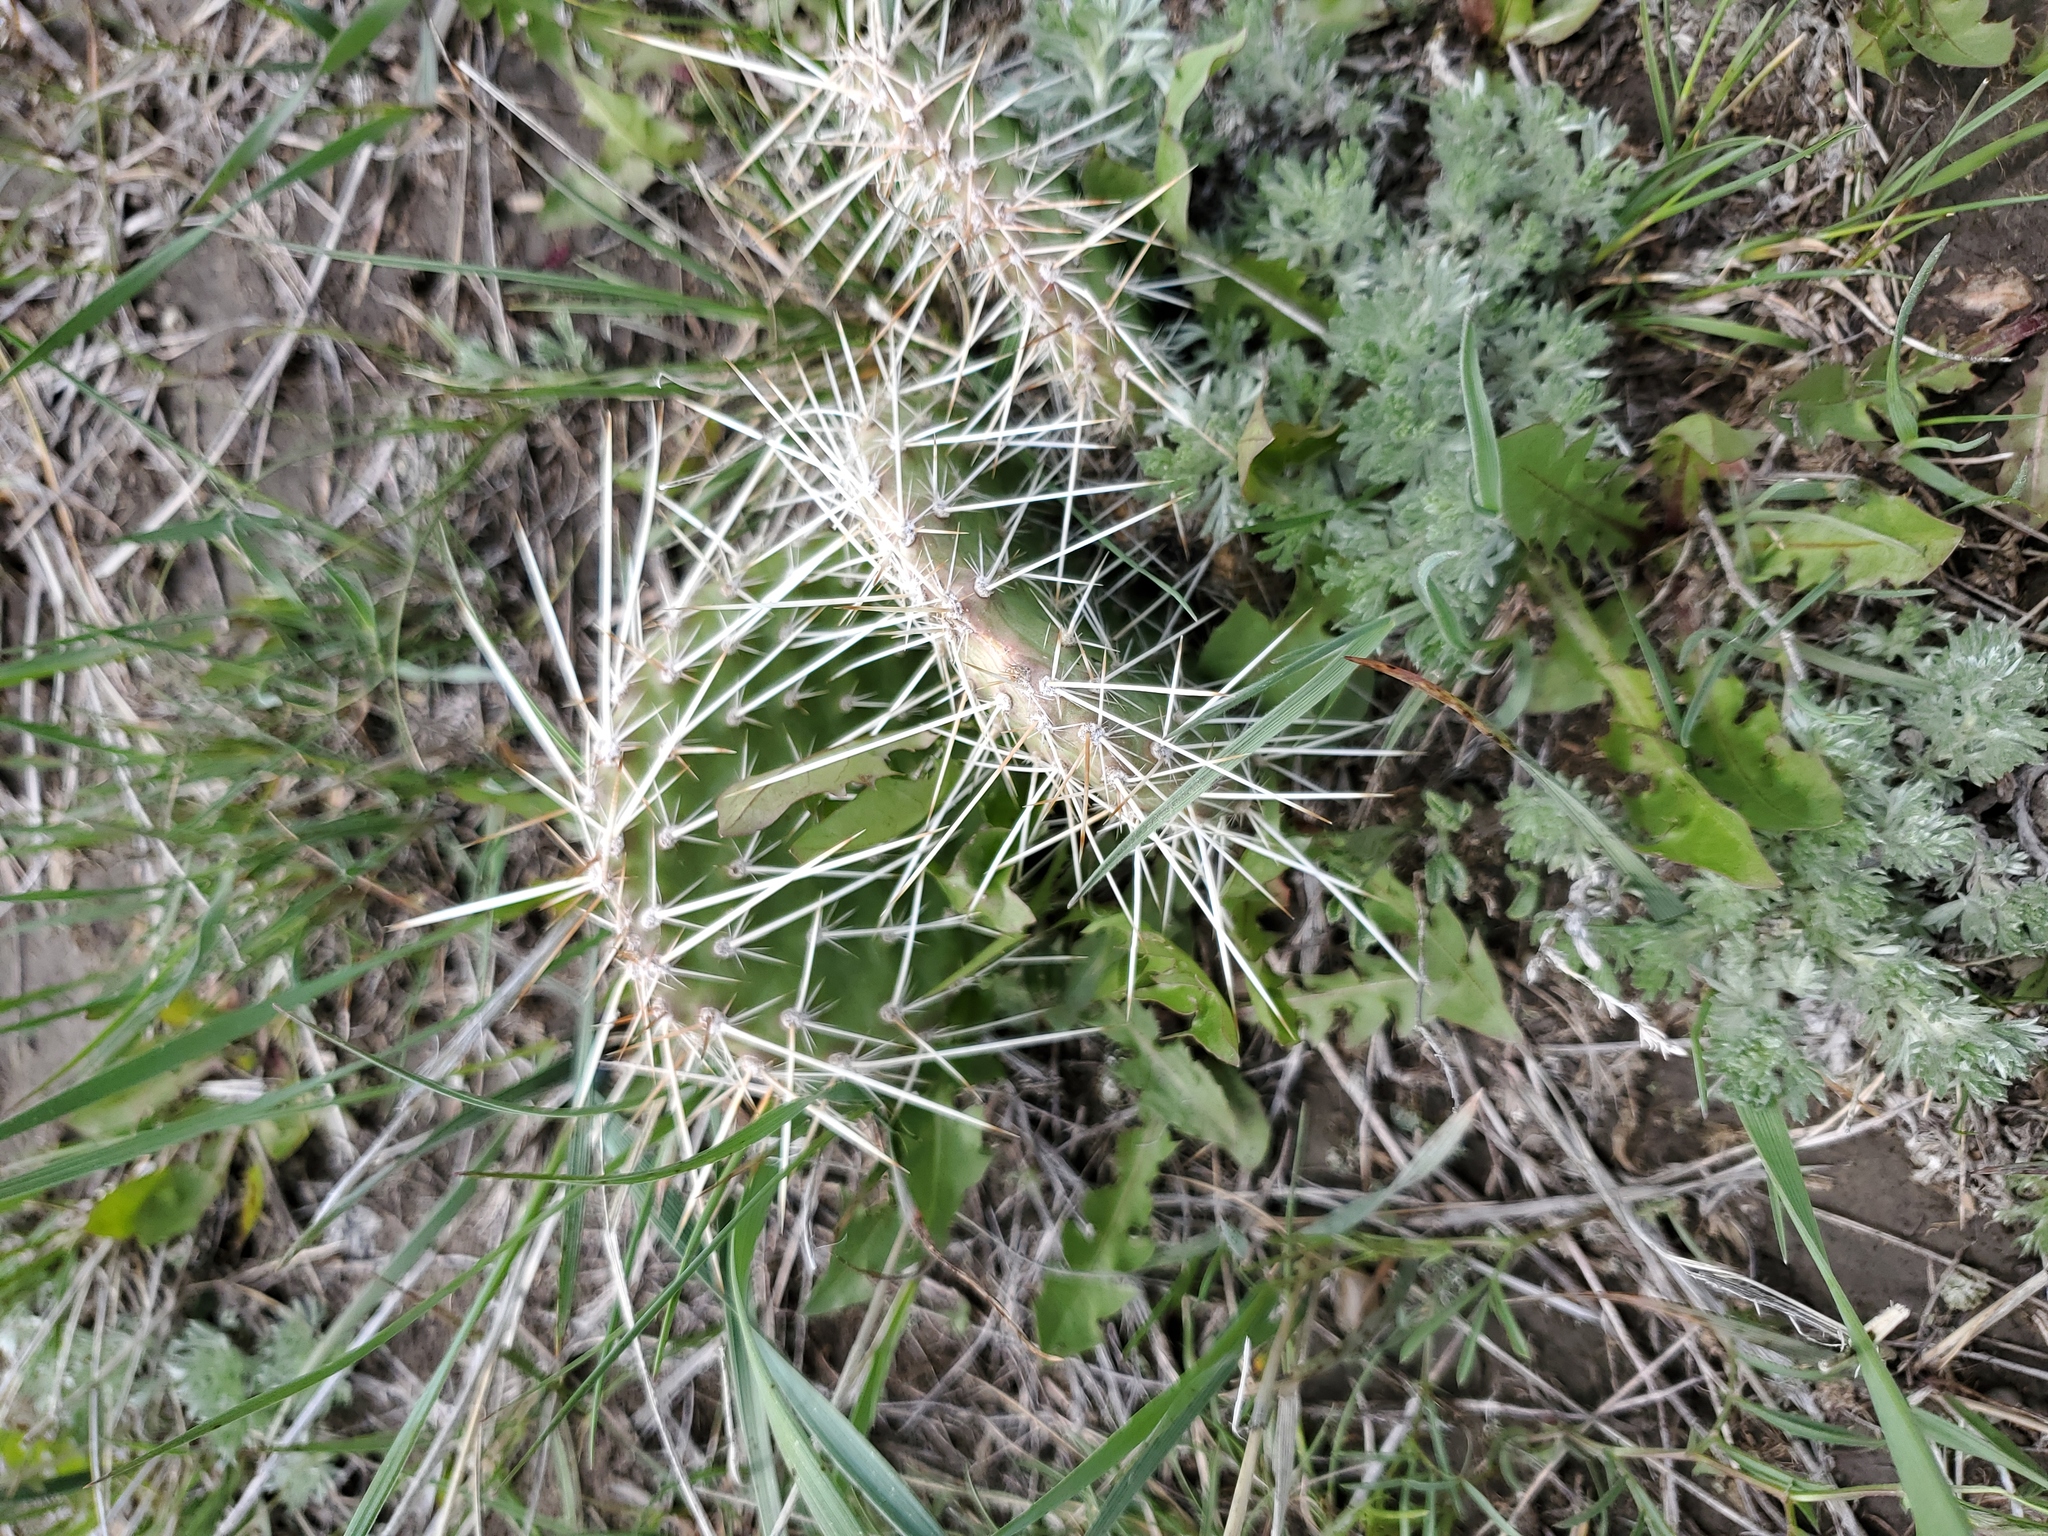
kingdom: Plantae
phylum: Tracheophyta
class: Magnoliopsida
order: Caryophyllales
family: Cactaceae
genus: Opuntia
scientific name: Opuntia polyacantha
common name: Plains prickly-pear
